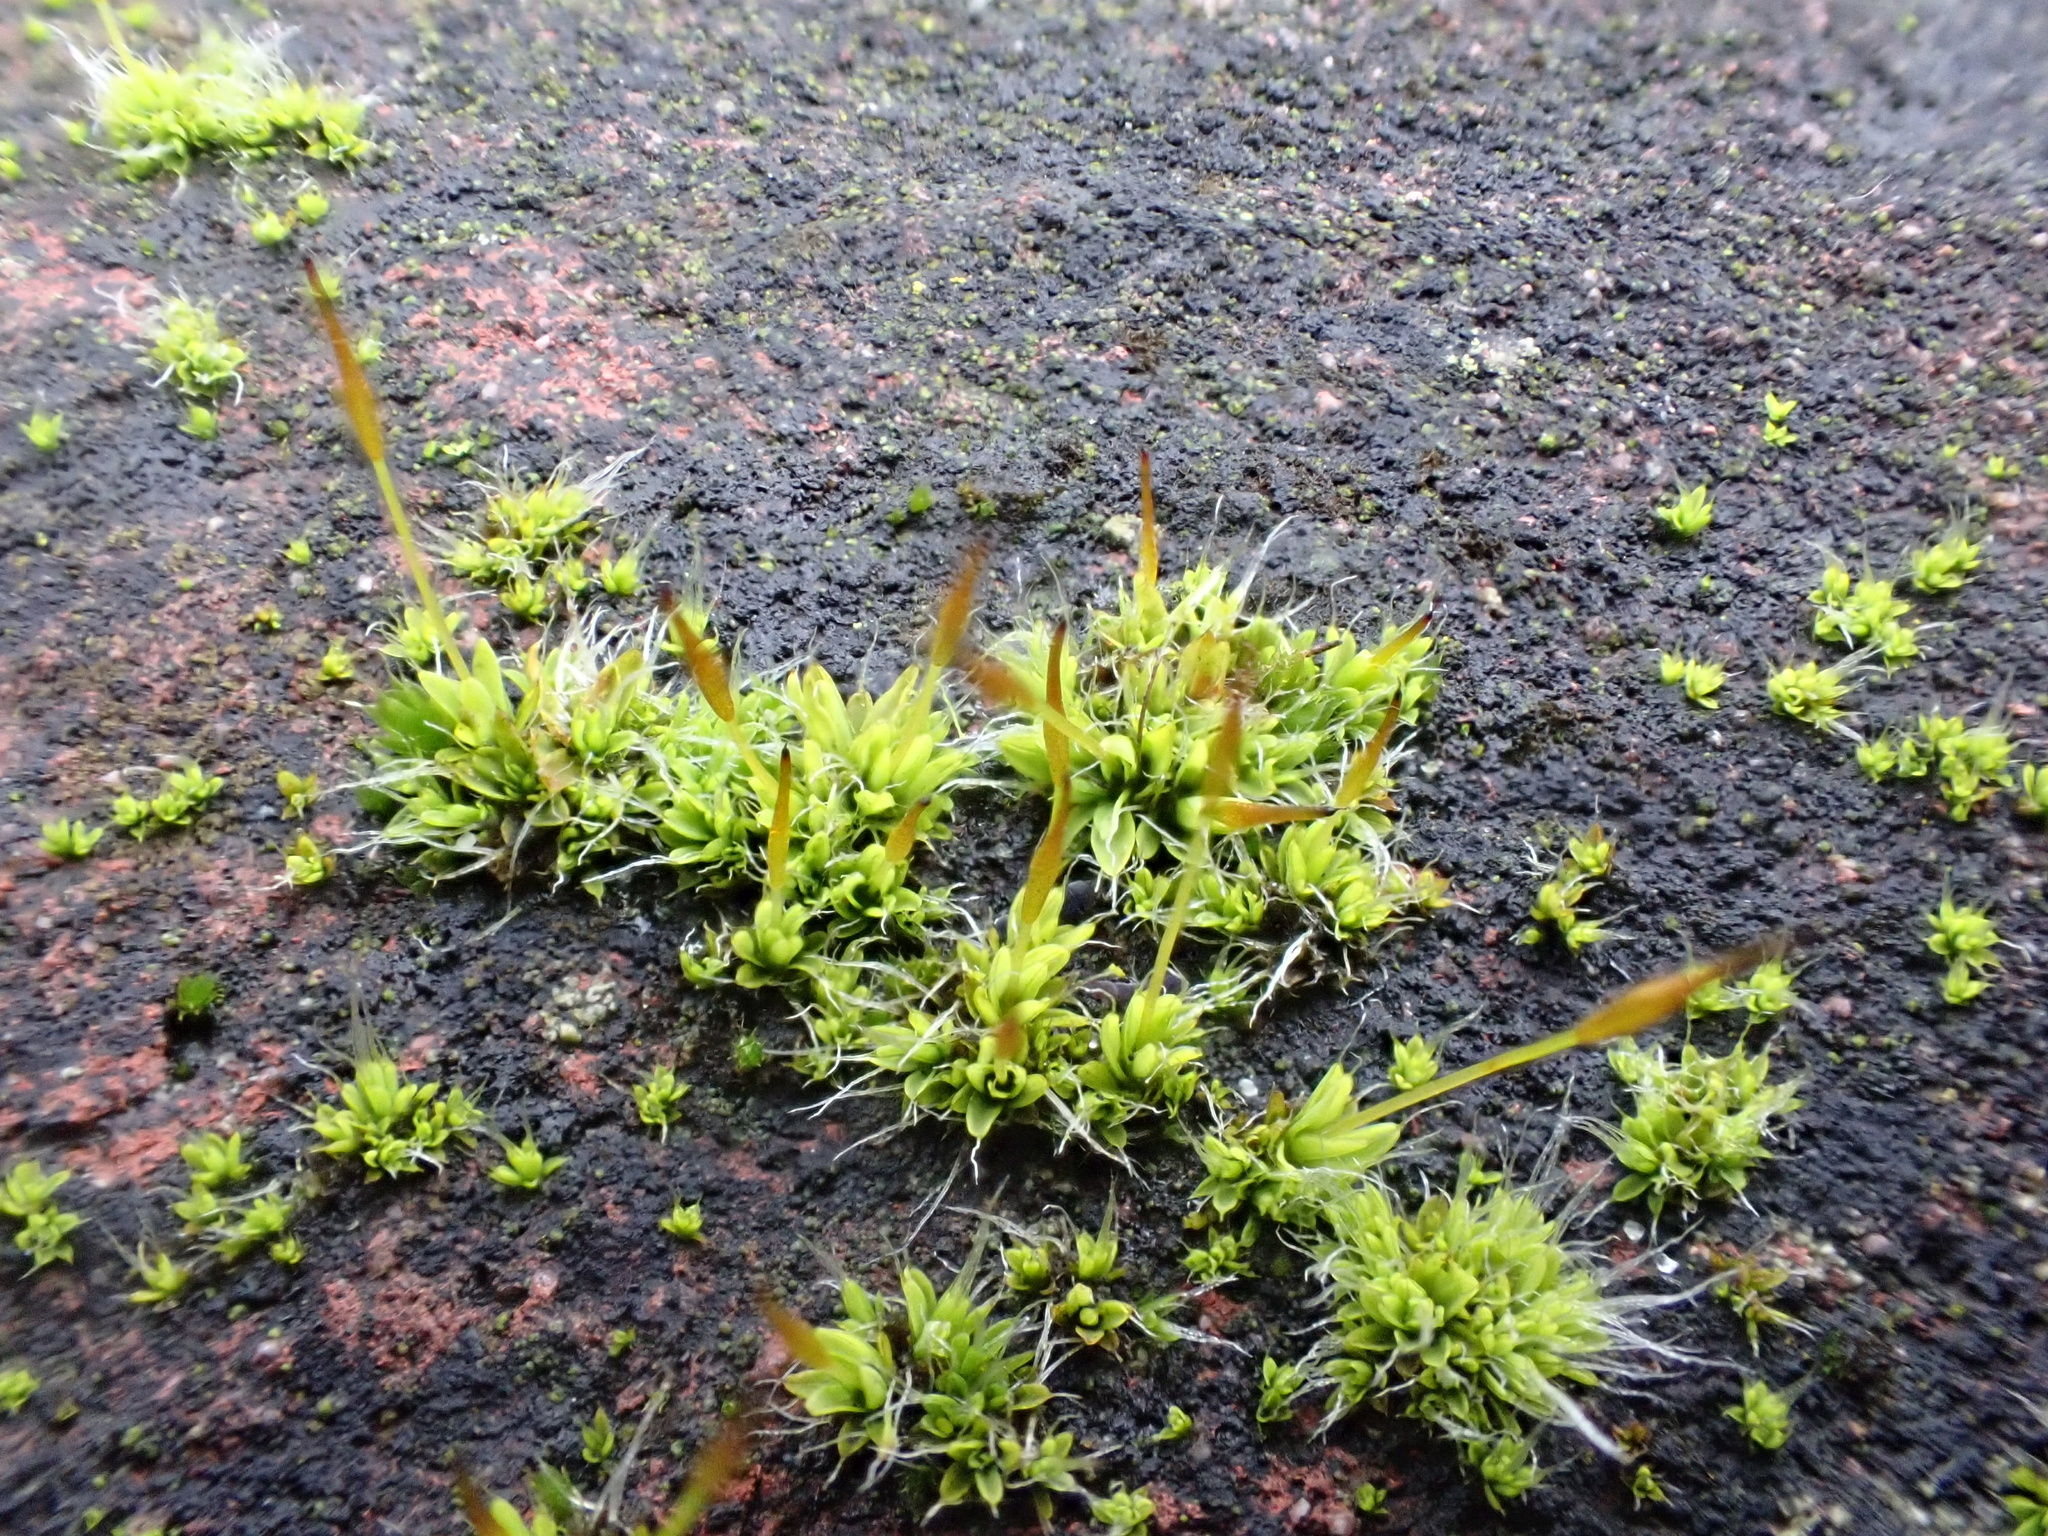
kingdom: Plantae
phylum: Bryophyta
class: Bryopsida
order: Pottiales
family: Pottiaceae
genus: Tortula
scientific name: Tortula muralis
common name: Wall screw-moss
